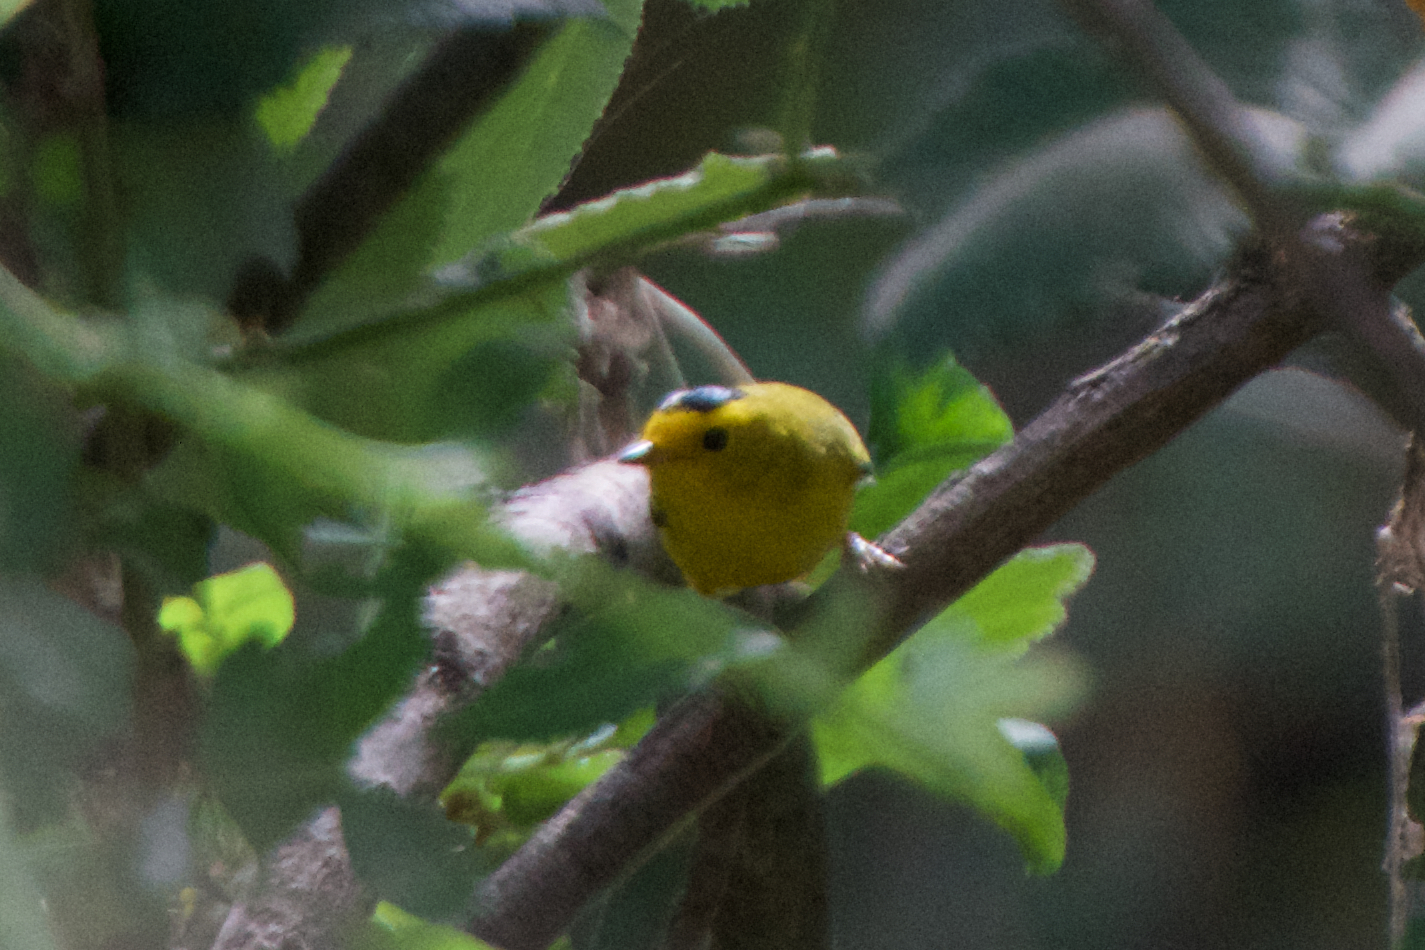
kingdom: Animalia
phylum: Chordata
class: Aves
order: Passeriformes
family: Parulidae
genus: Cardellina
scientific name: Cardellina pusilla
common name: Wilson's warbler
